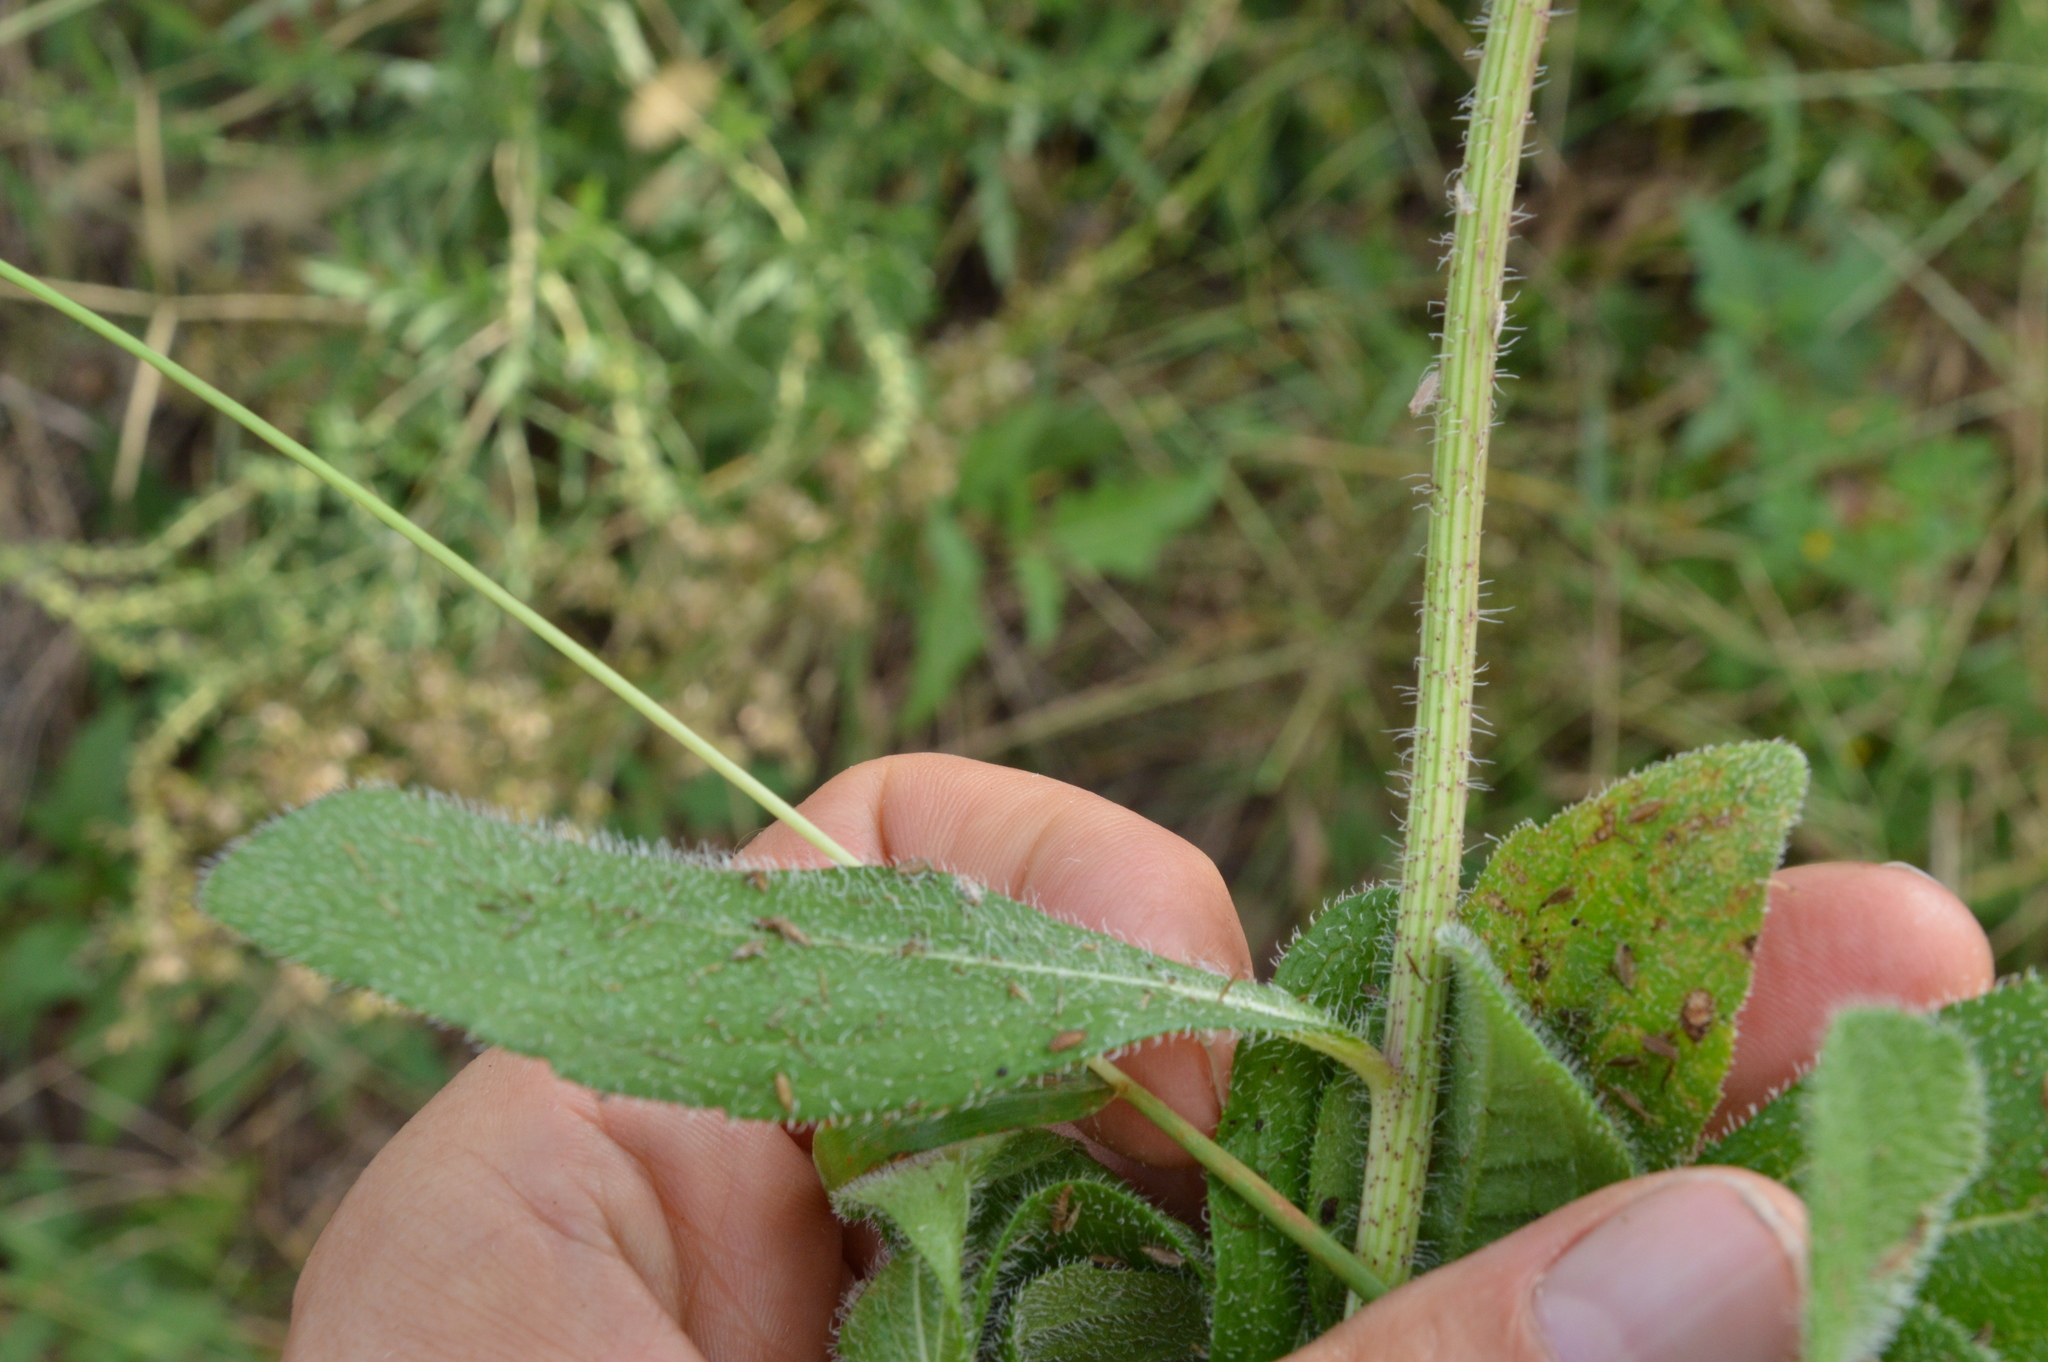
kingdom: Plantae
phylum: Tracheophyta
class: Magnoliopsida
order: Asterales
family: Asteraceae
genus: Rudbeckia
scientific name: Rudbeckia hirta
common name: Black-eyed-susan
